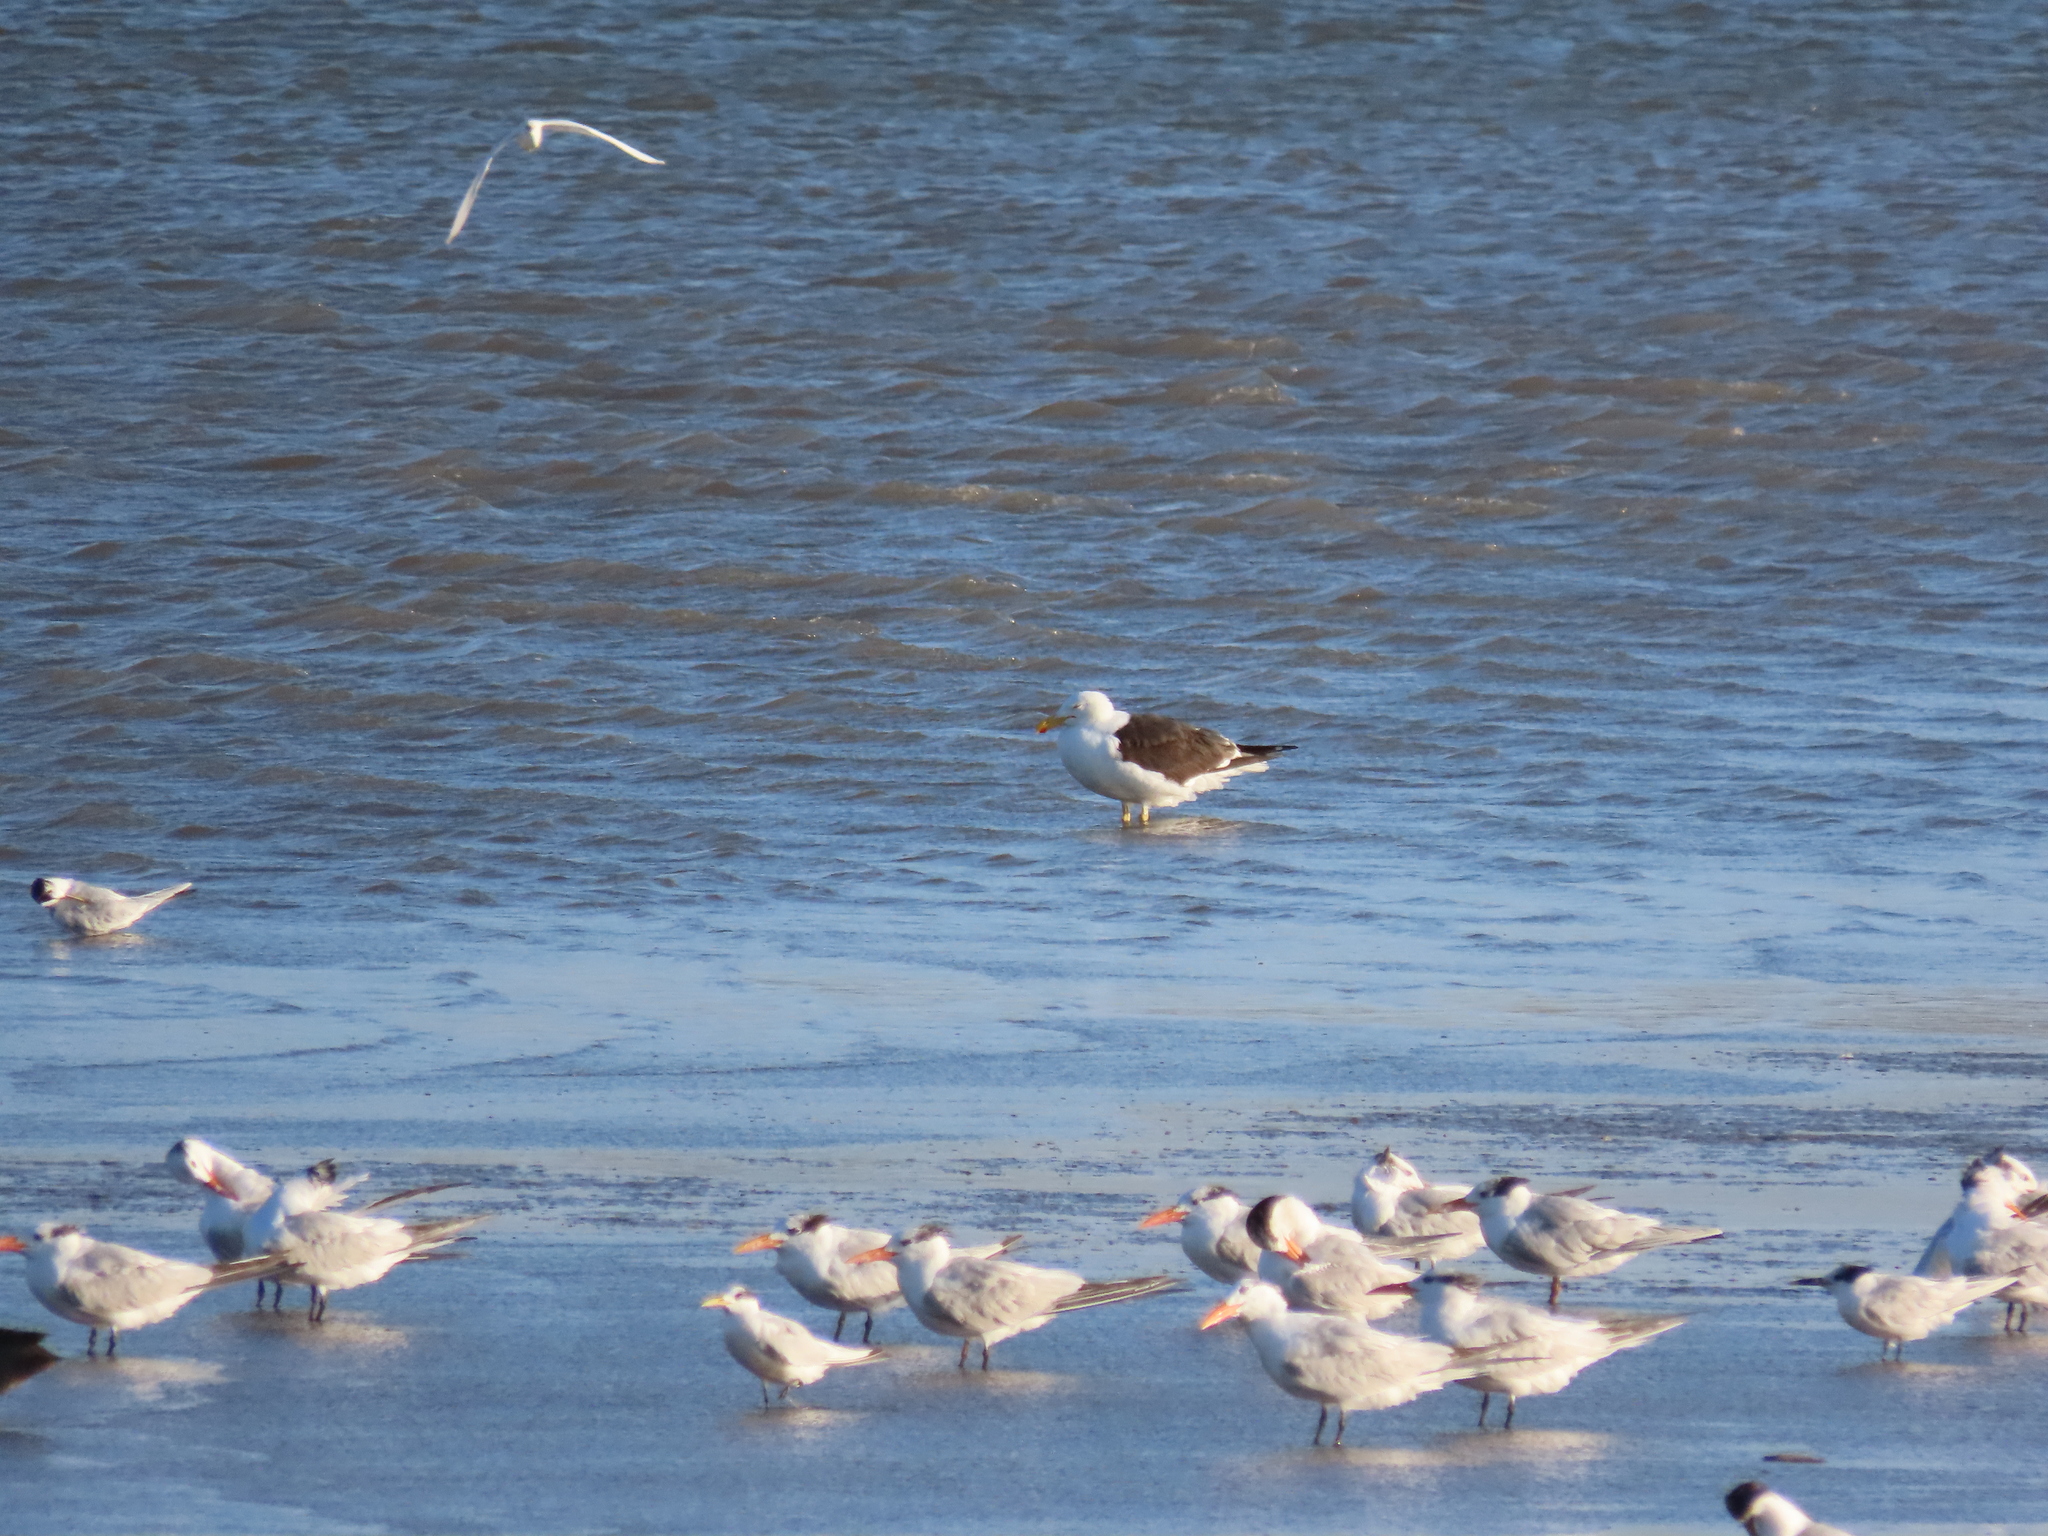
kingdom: Animalia
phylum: Chordata
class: Aves
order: Charadriiformes
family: Laridae
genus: Thalasseus
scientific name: Thalasseus acuflavidus
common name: Cabot's tern
